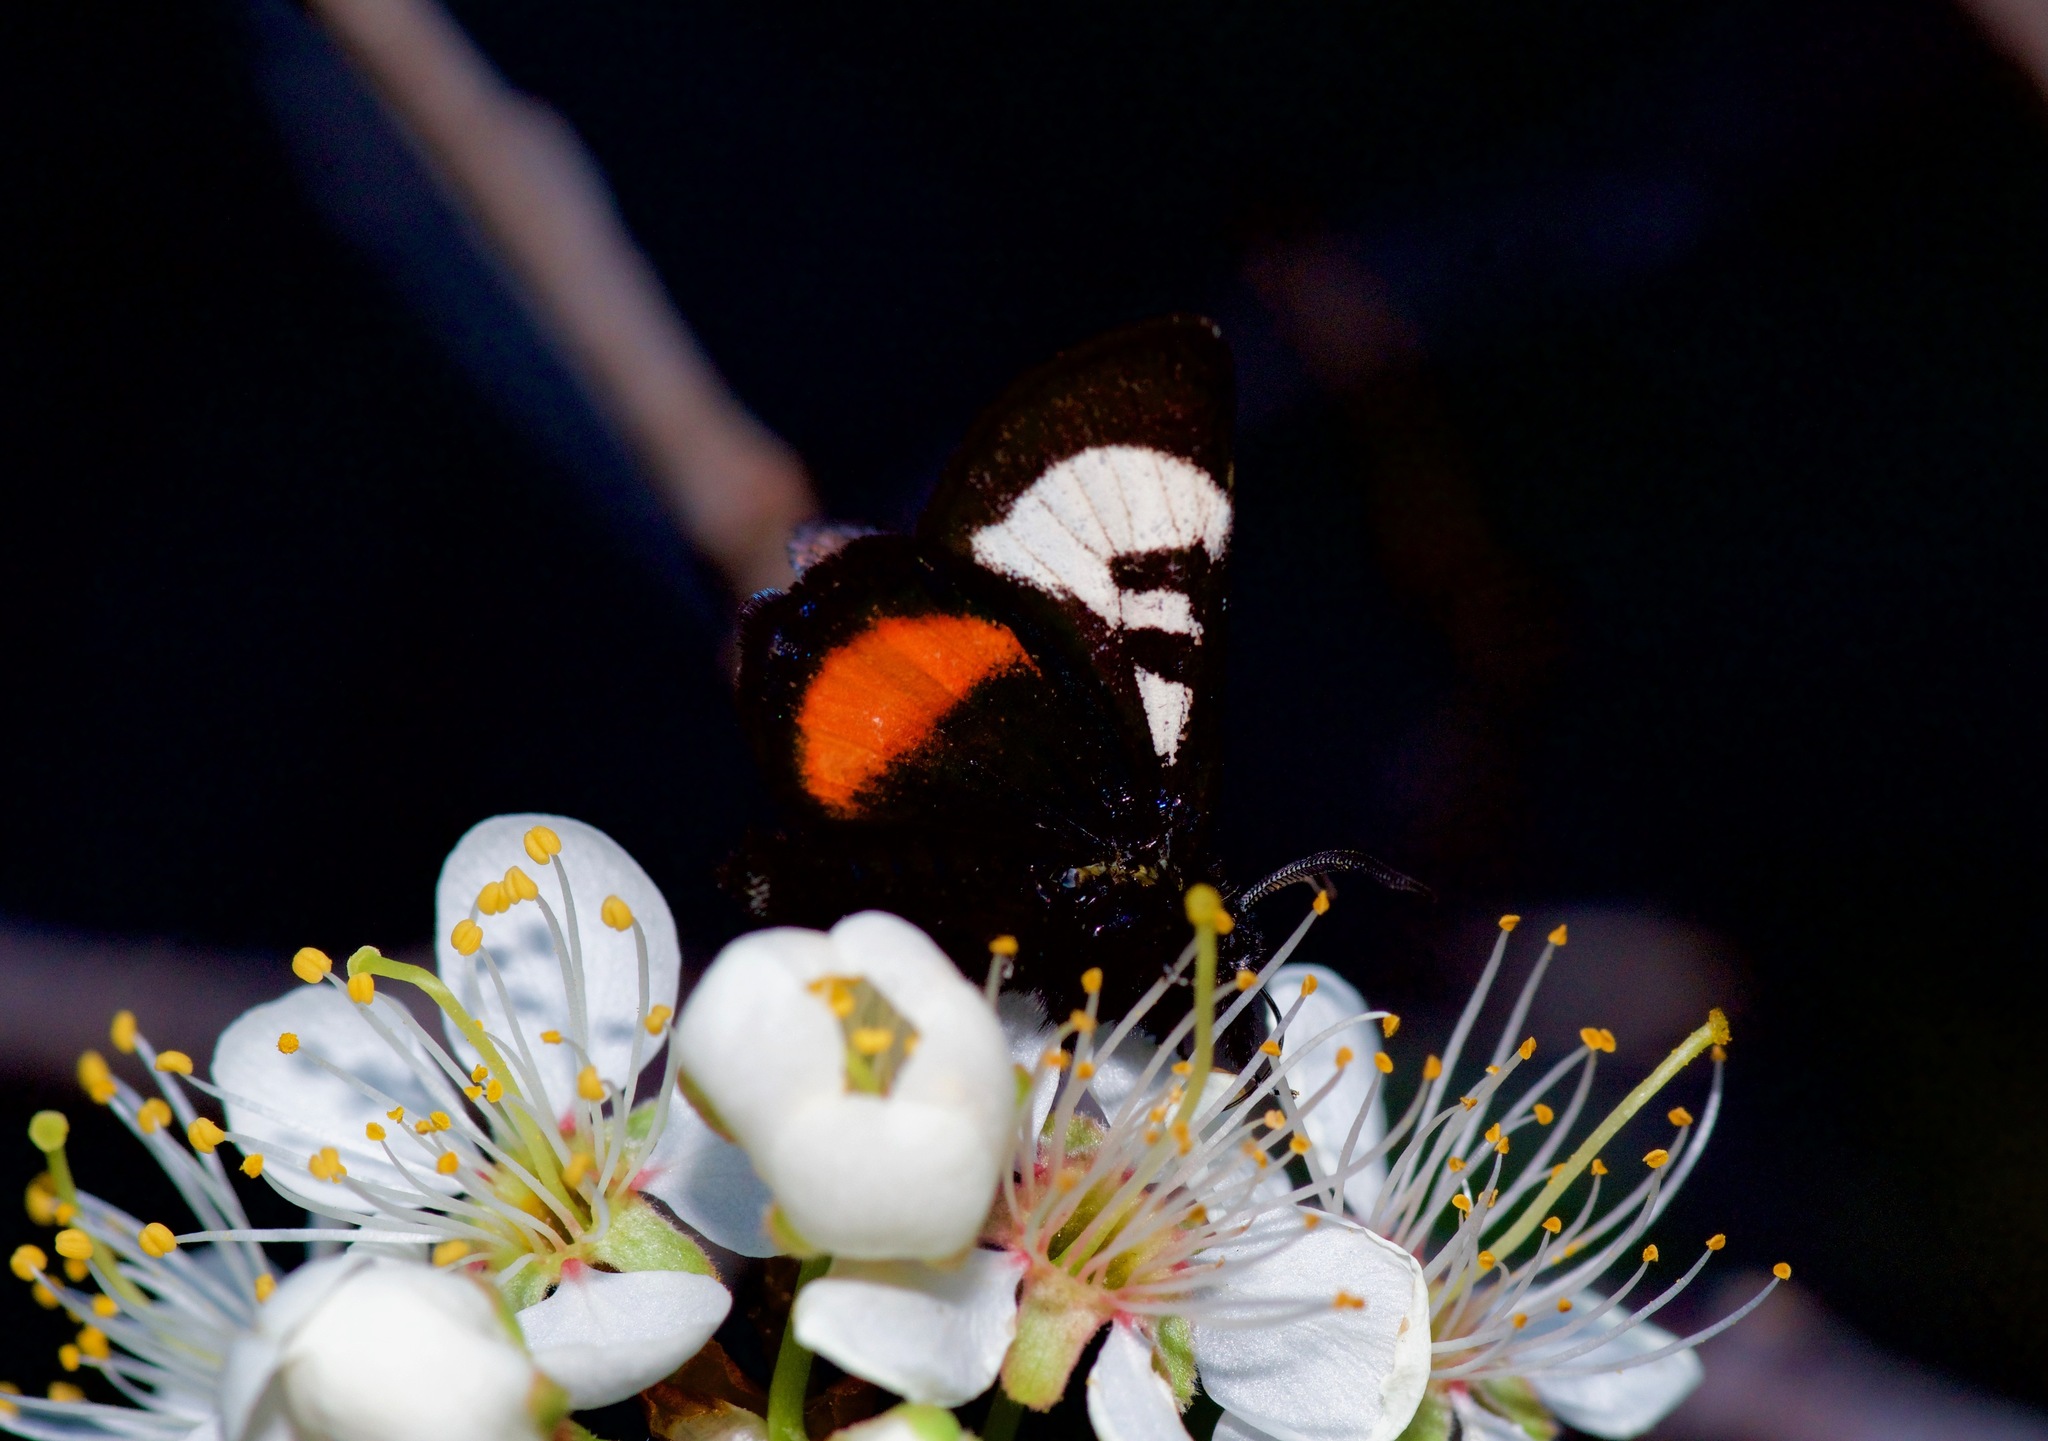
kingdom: Animalia
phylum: Arthropoda
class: Insecta
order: Lepidoptera
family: Noctuidae
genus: Psychomorpha
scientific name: Psychomorpha epimenis
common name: Grapevine epimenis moth
